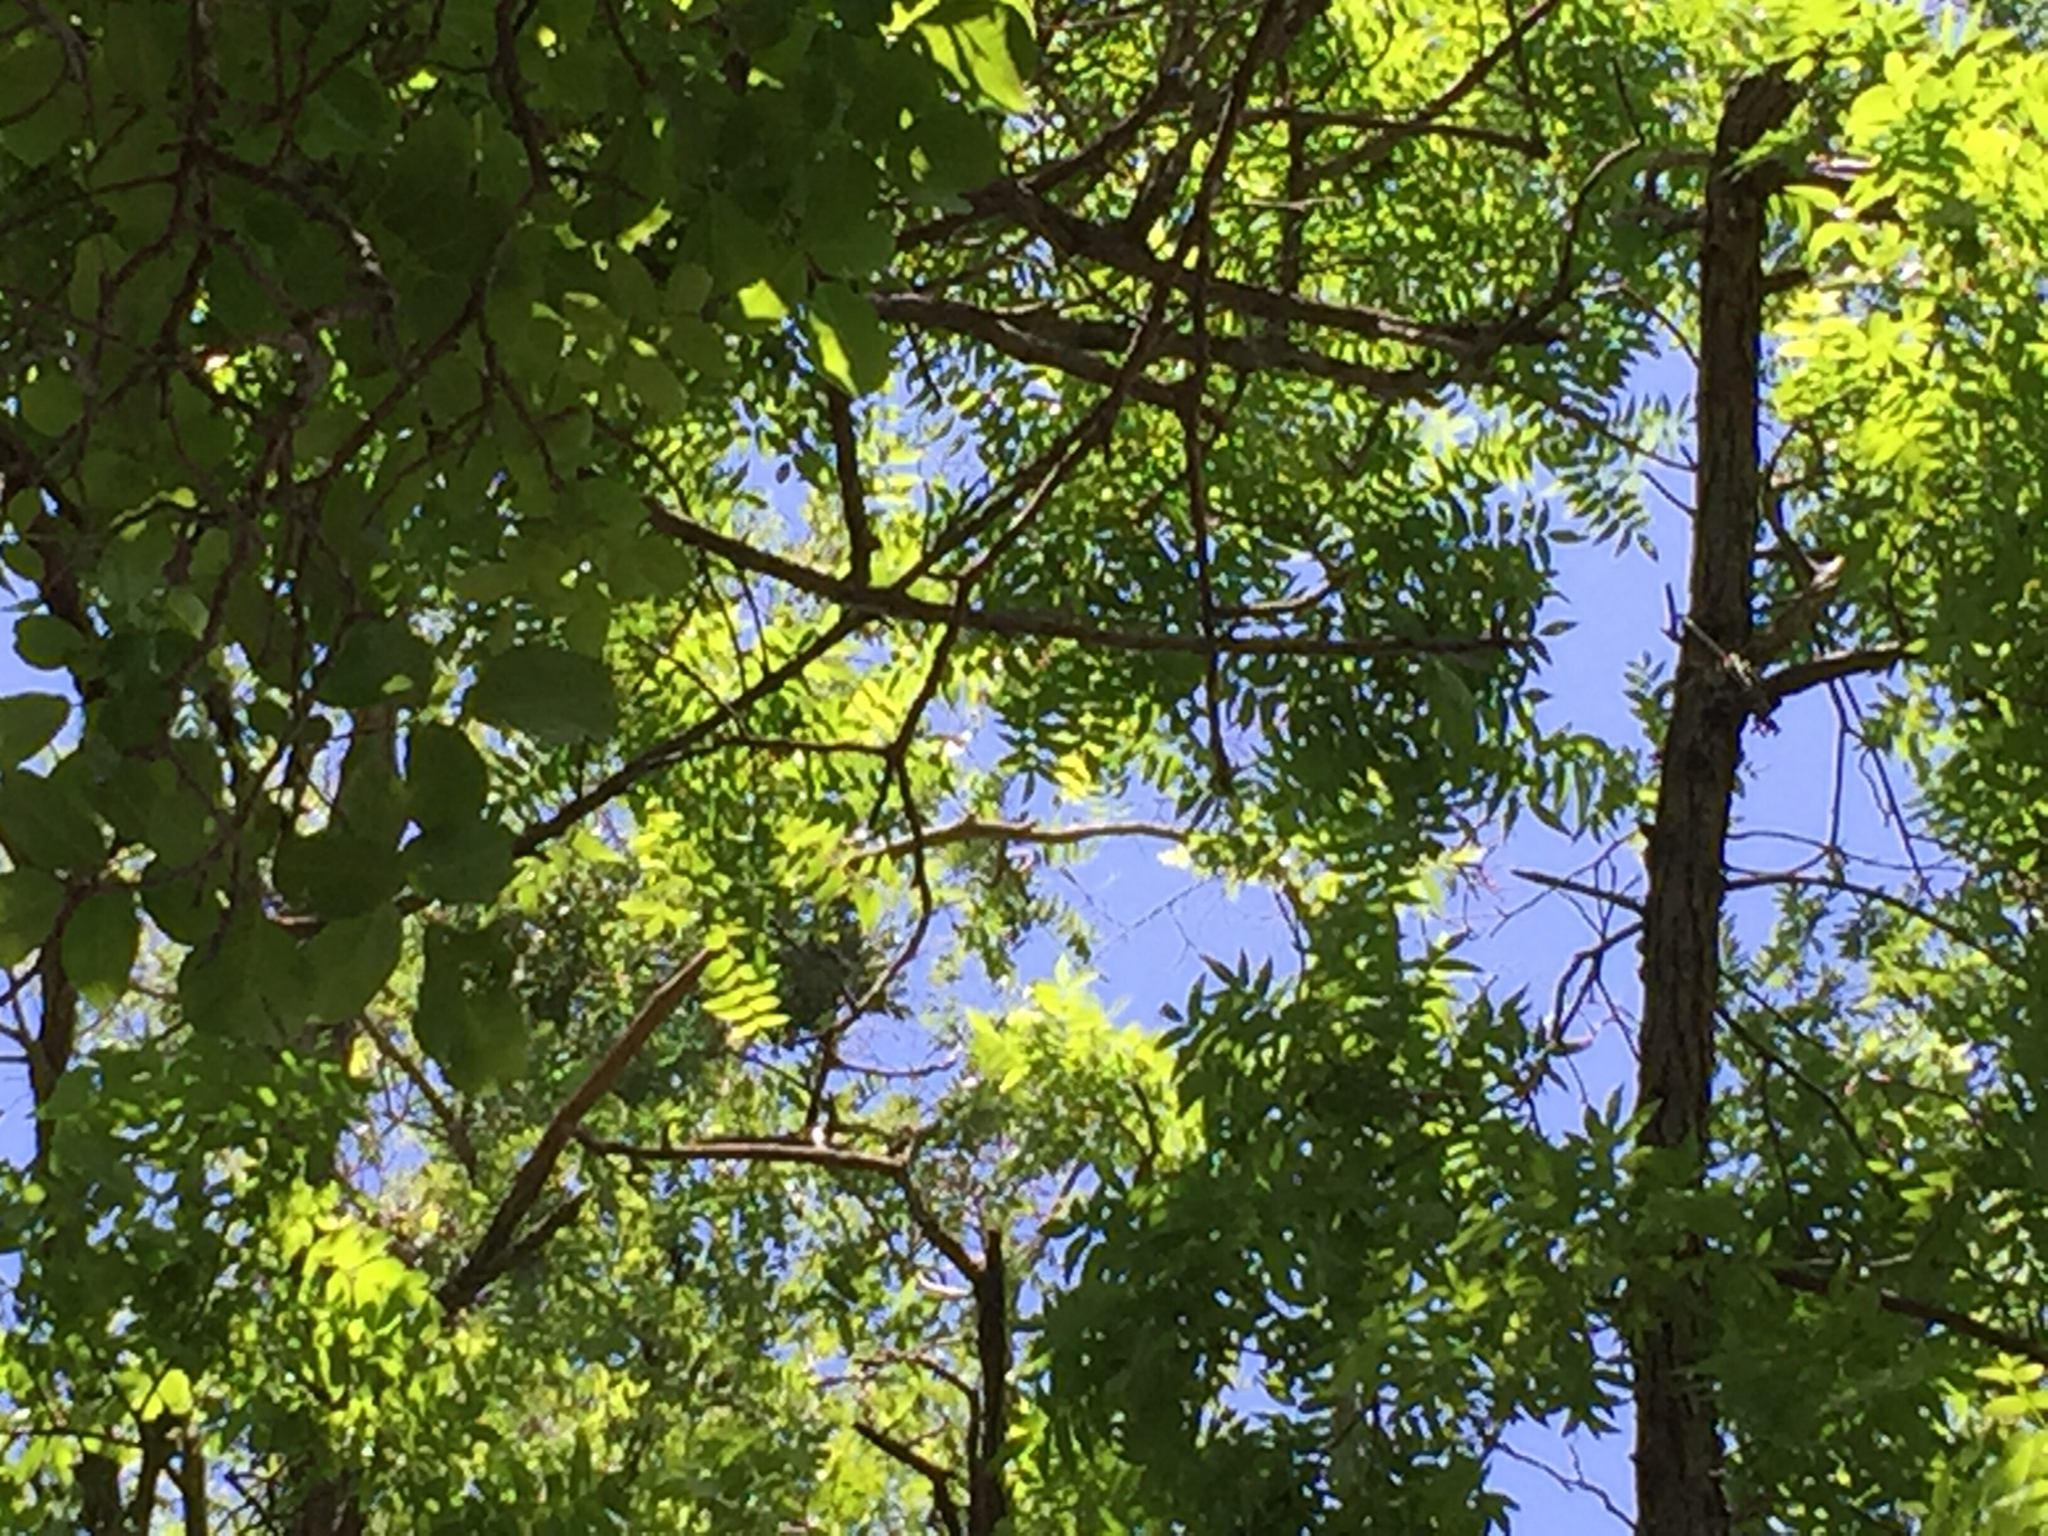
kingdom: Animalia
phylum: Chordata
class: Aves
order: Passeriformes
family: Corvidae
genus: Aphelocoma
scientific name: Aphelocoma californica
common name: California scrub-jay
